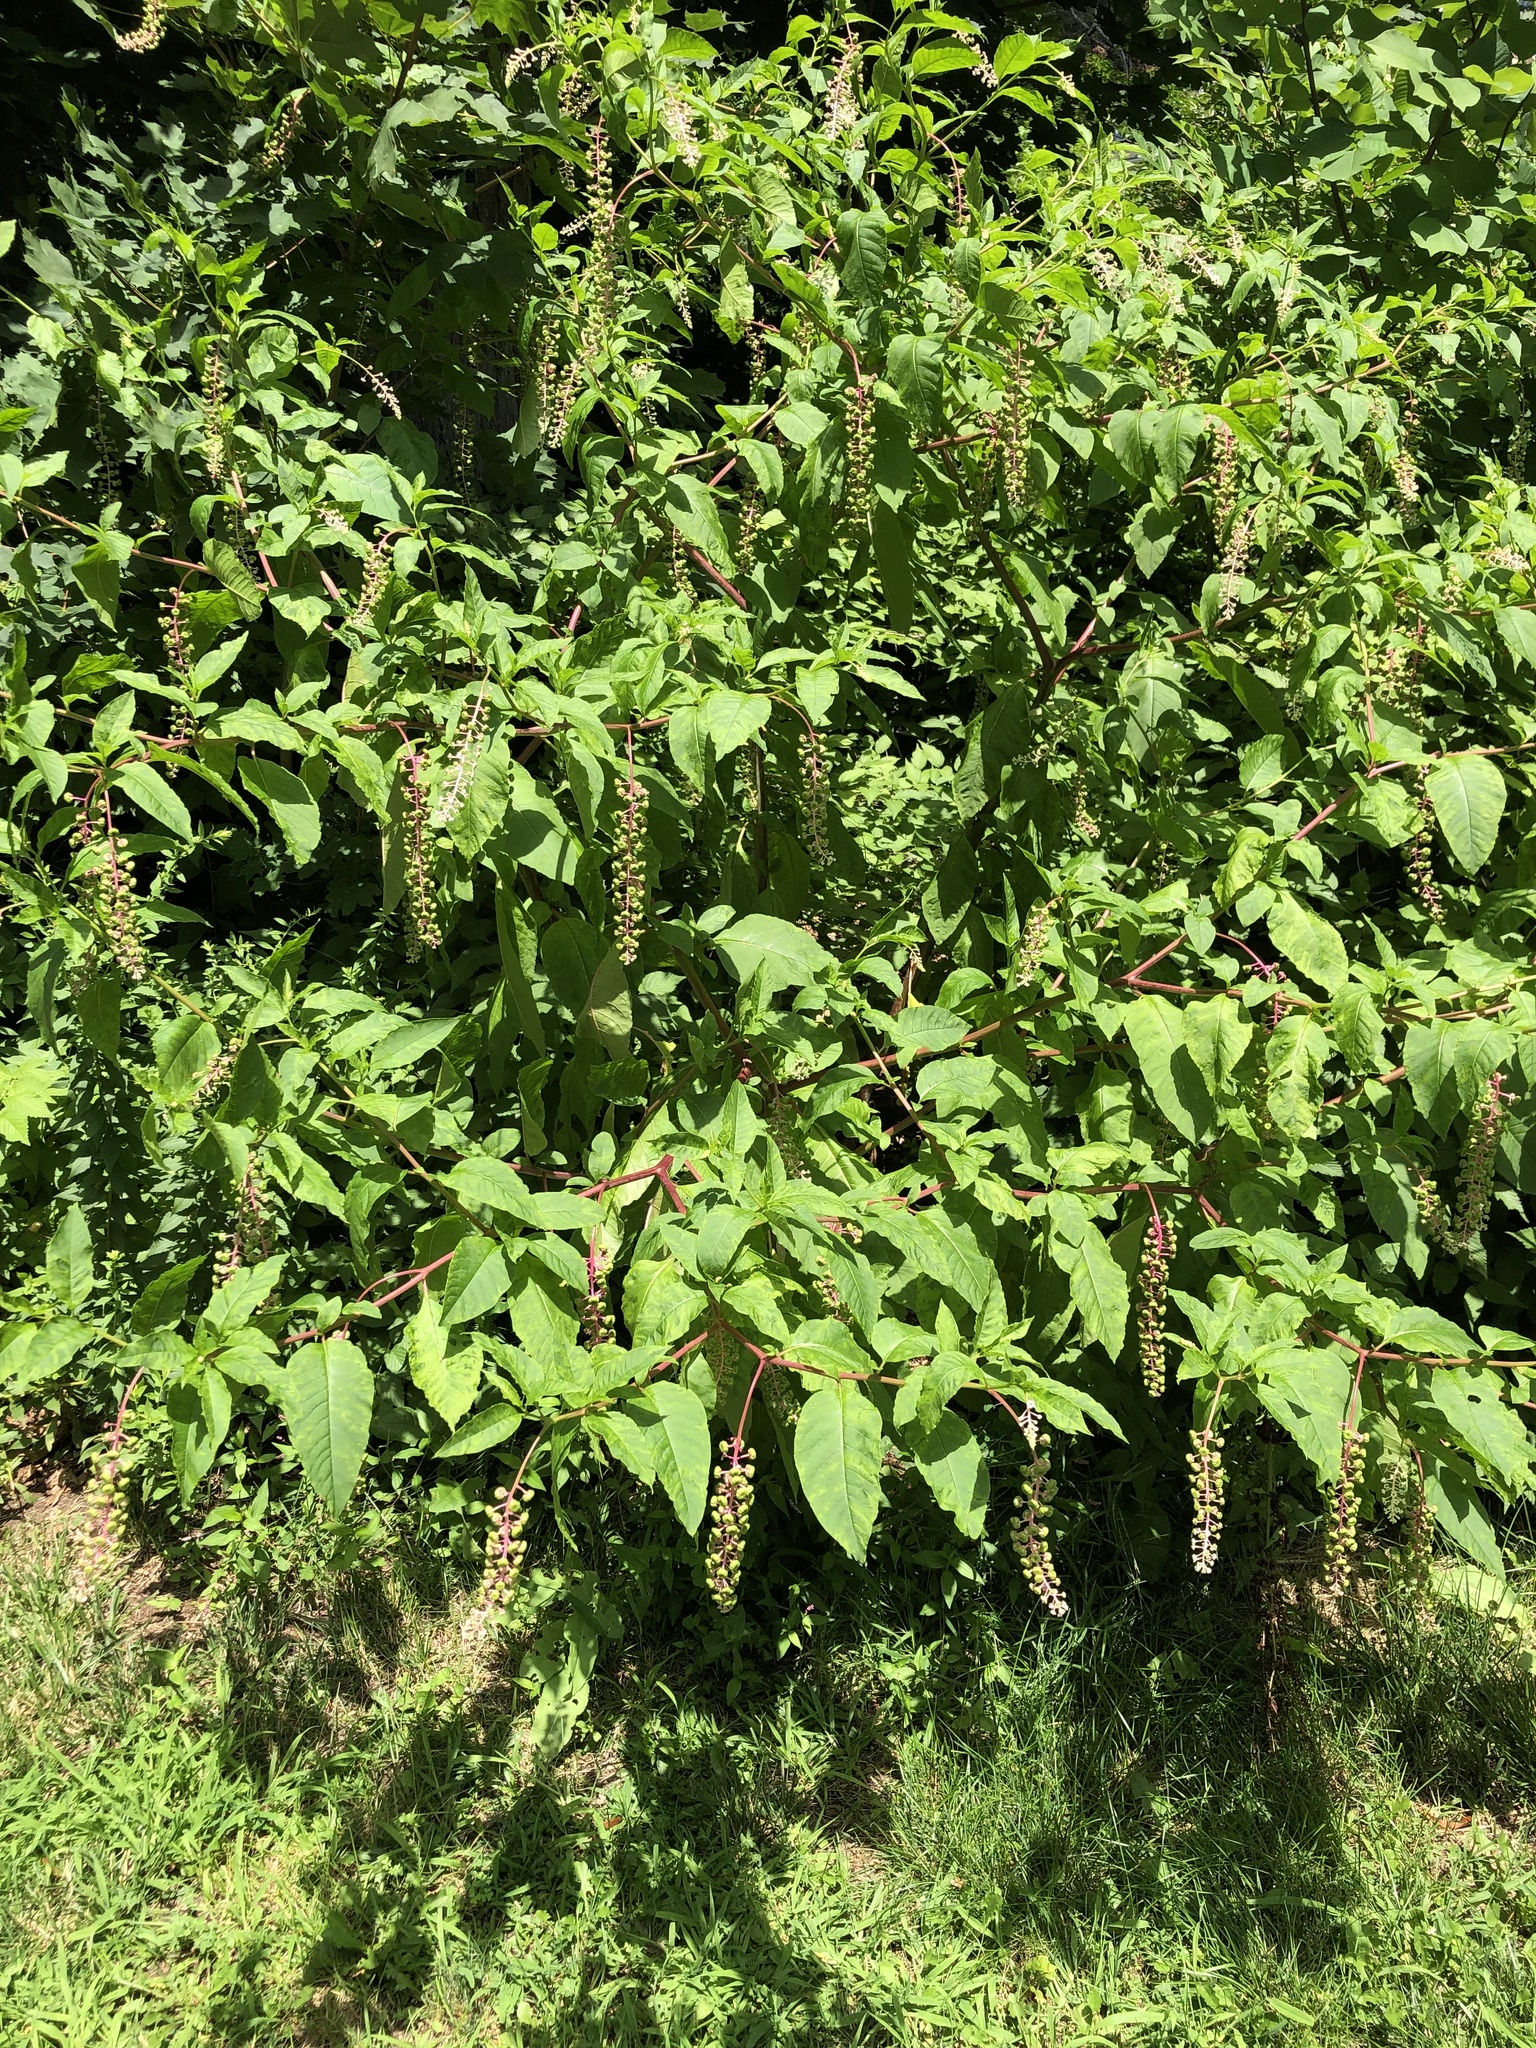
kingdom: Viruses
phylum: Pisuviricota
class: Stelpaviricetes
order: Patatavirales
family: Potyviridae
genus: Potyvirus
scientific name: Potyvirus Pokeweed mosaic virus
